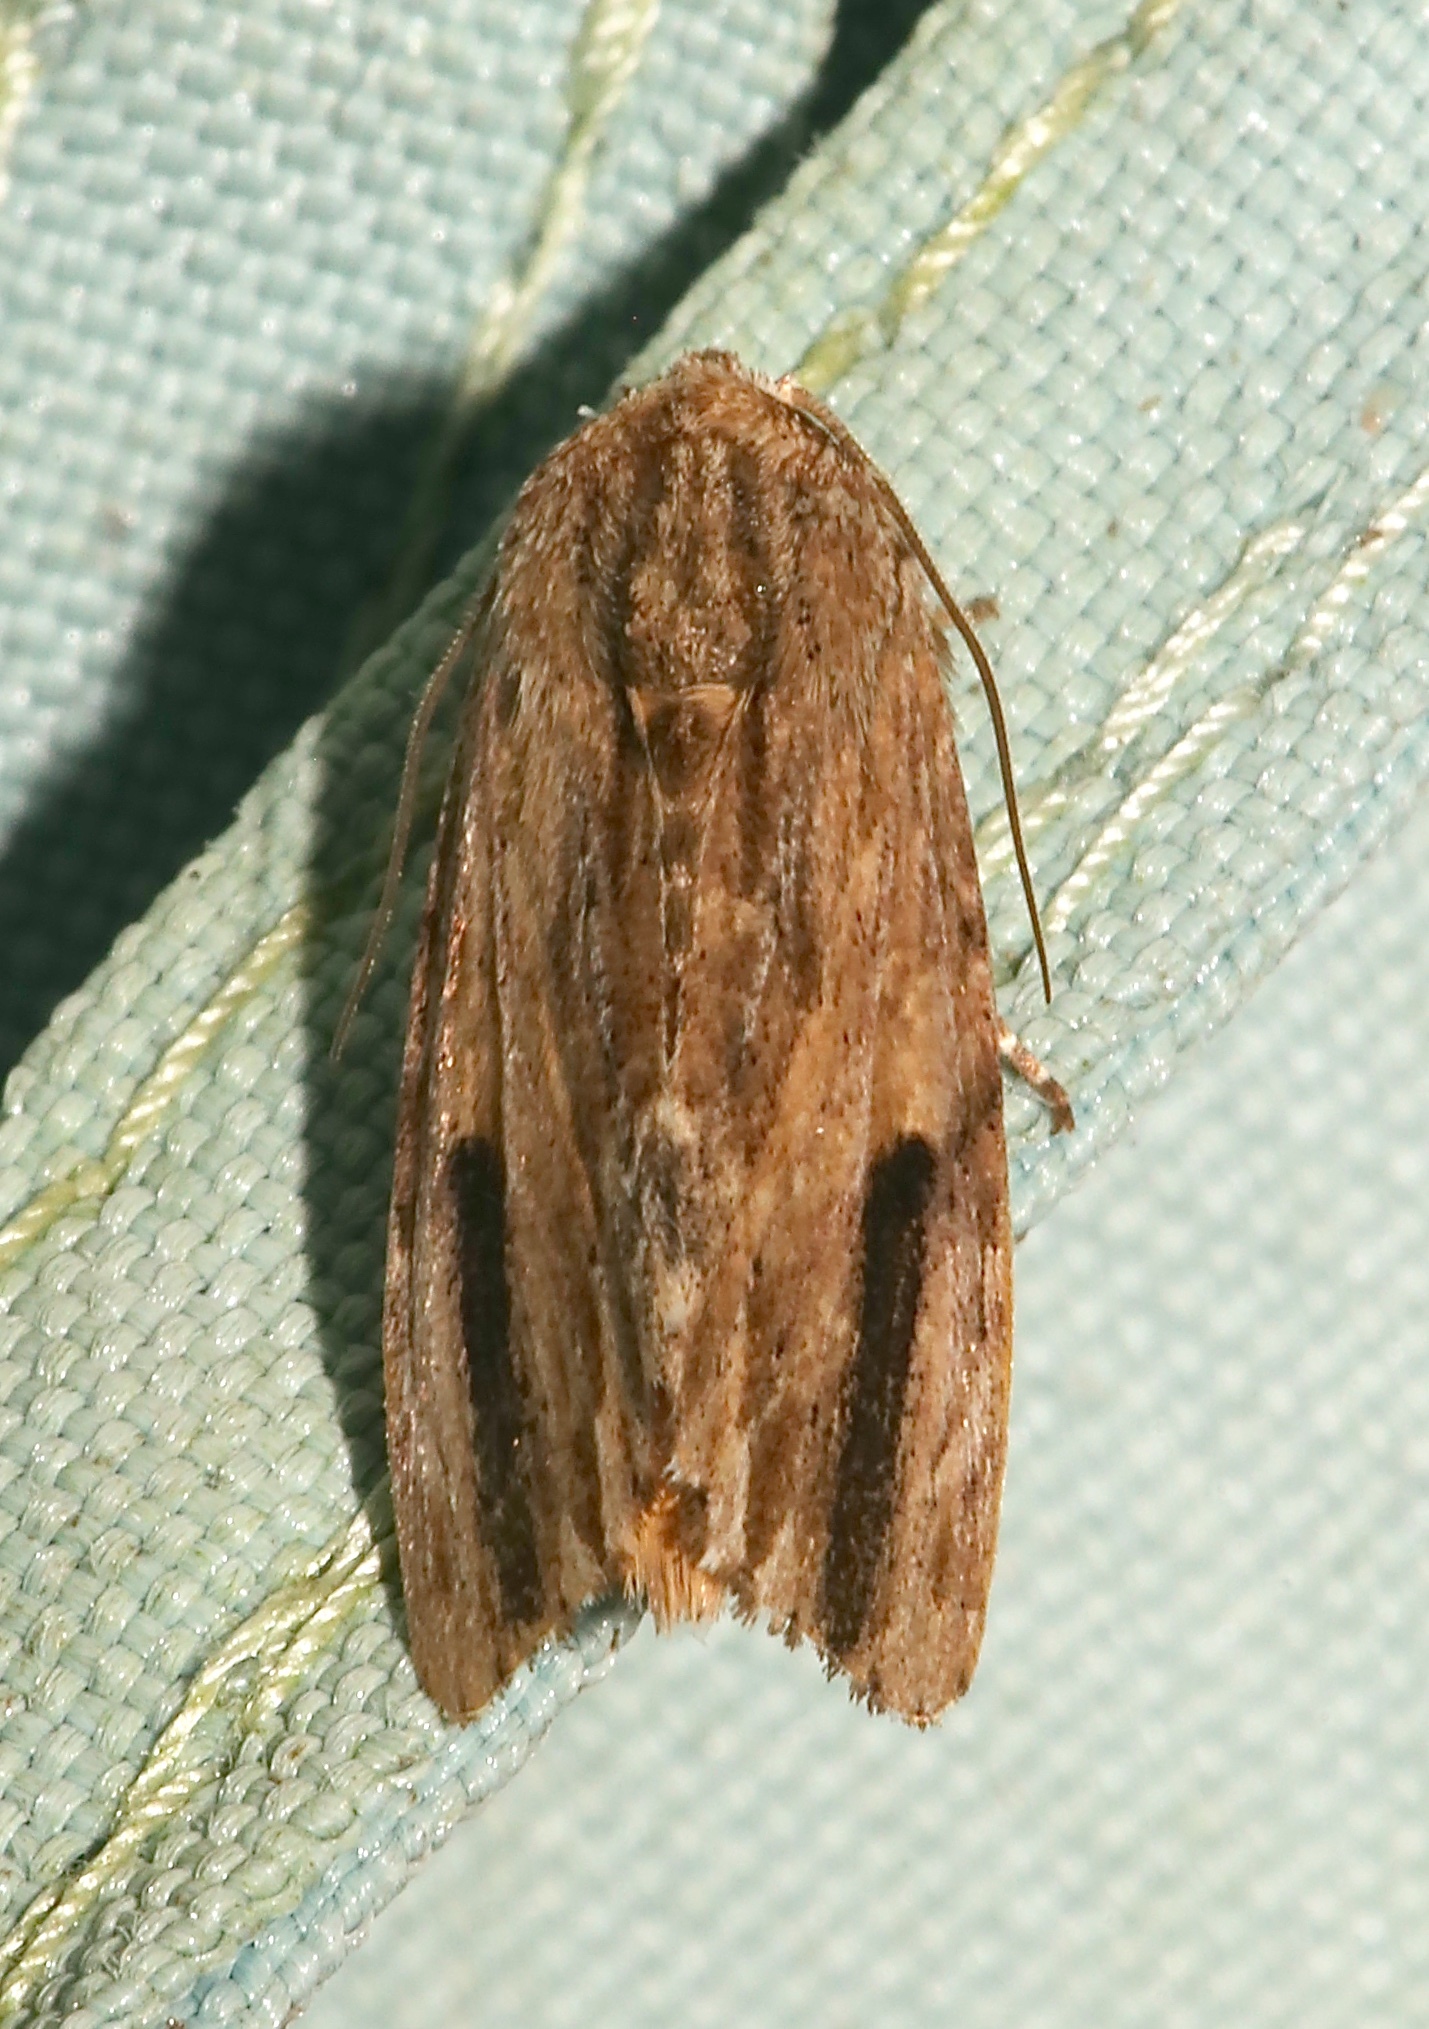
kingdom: Animalia
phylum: Arthropoda
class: Insecta
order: Lepidoptera
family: Noctuidae
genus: Spodoptera
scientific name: Spodoptera eridania
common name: Southern army worm
